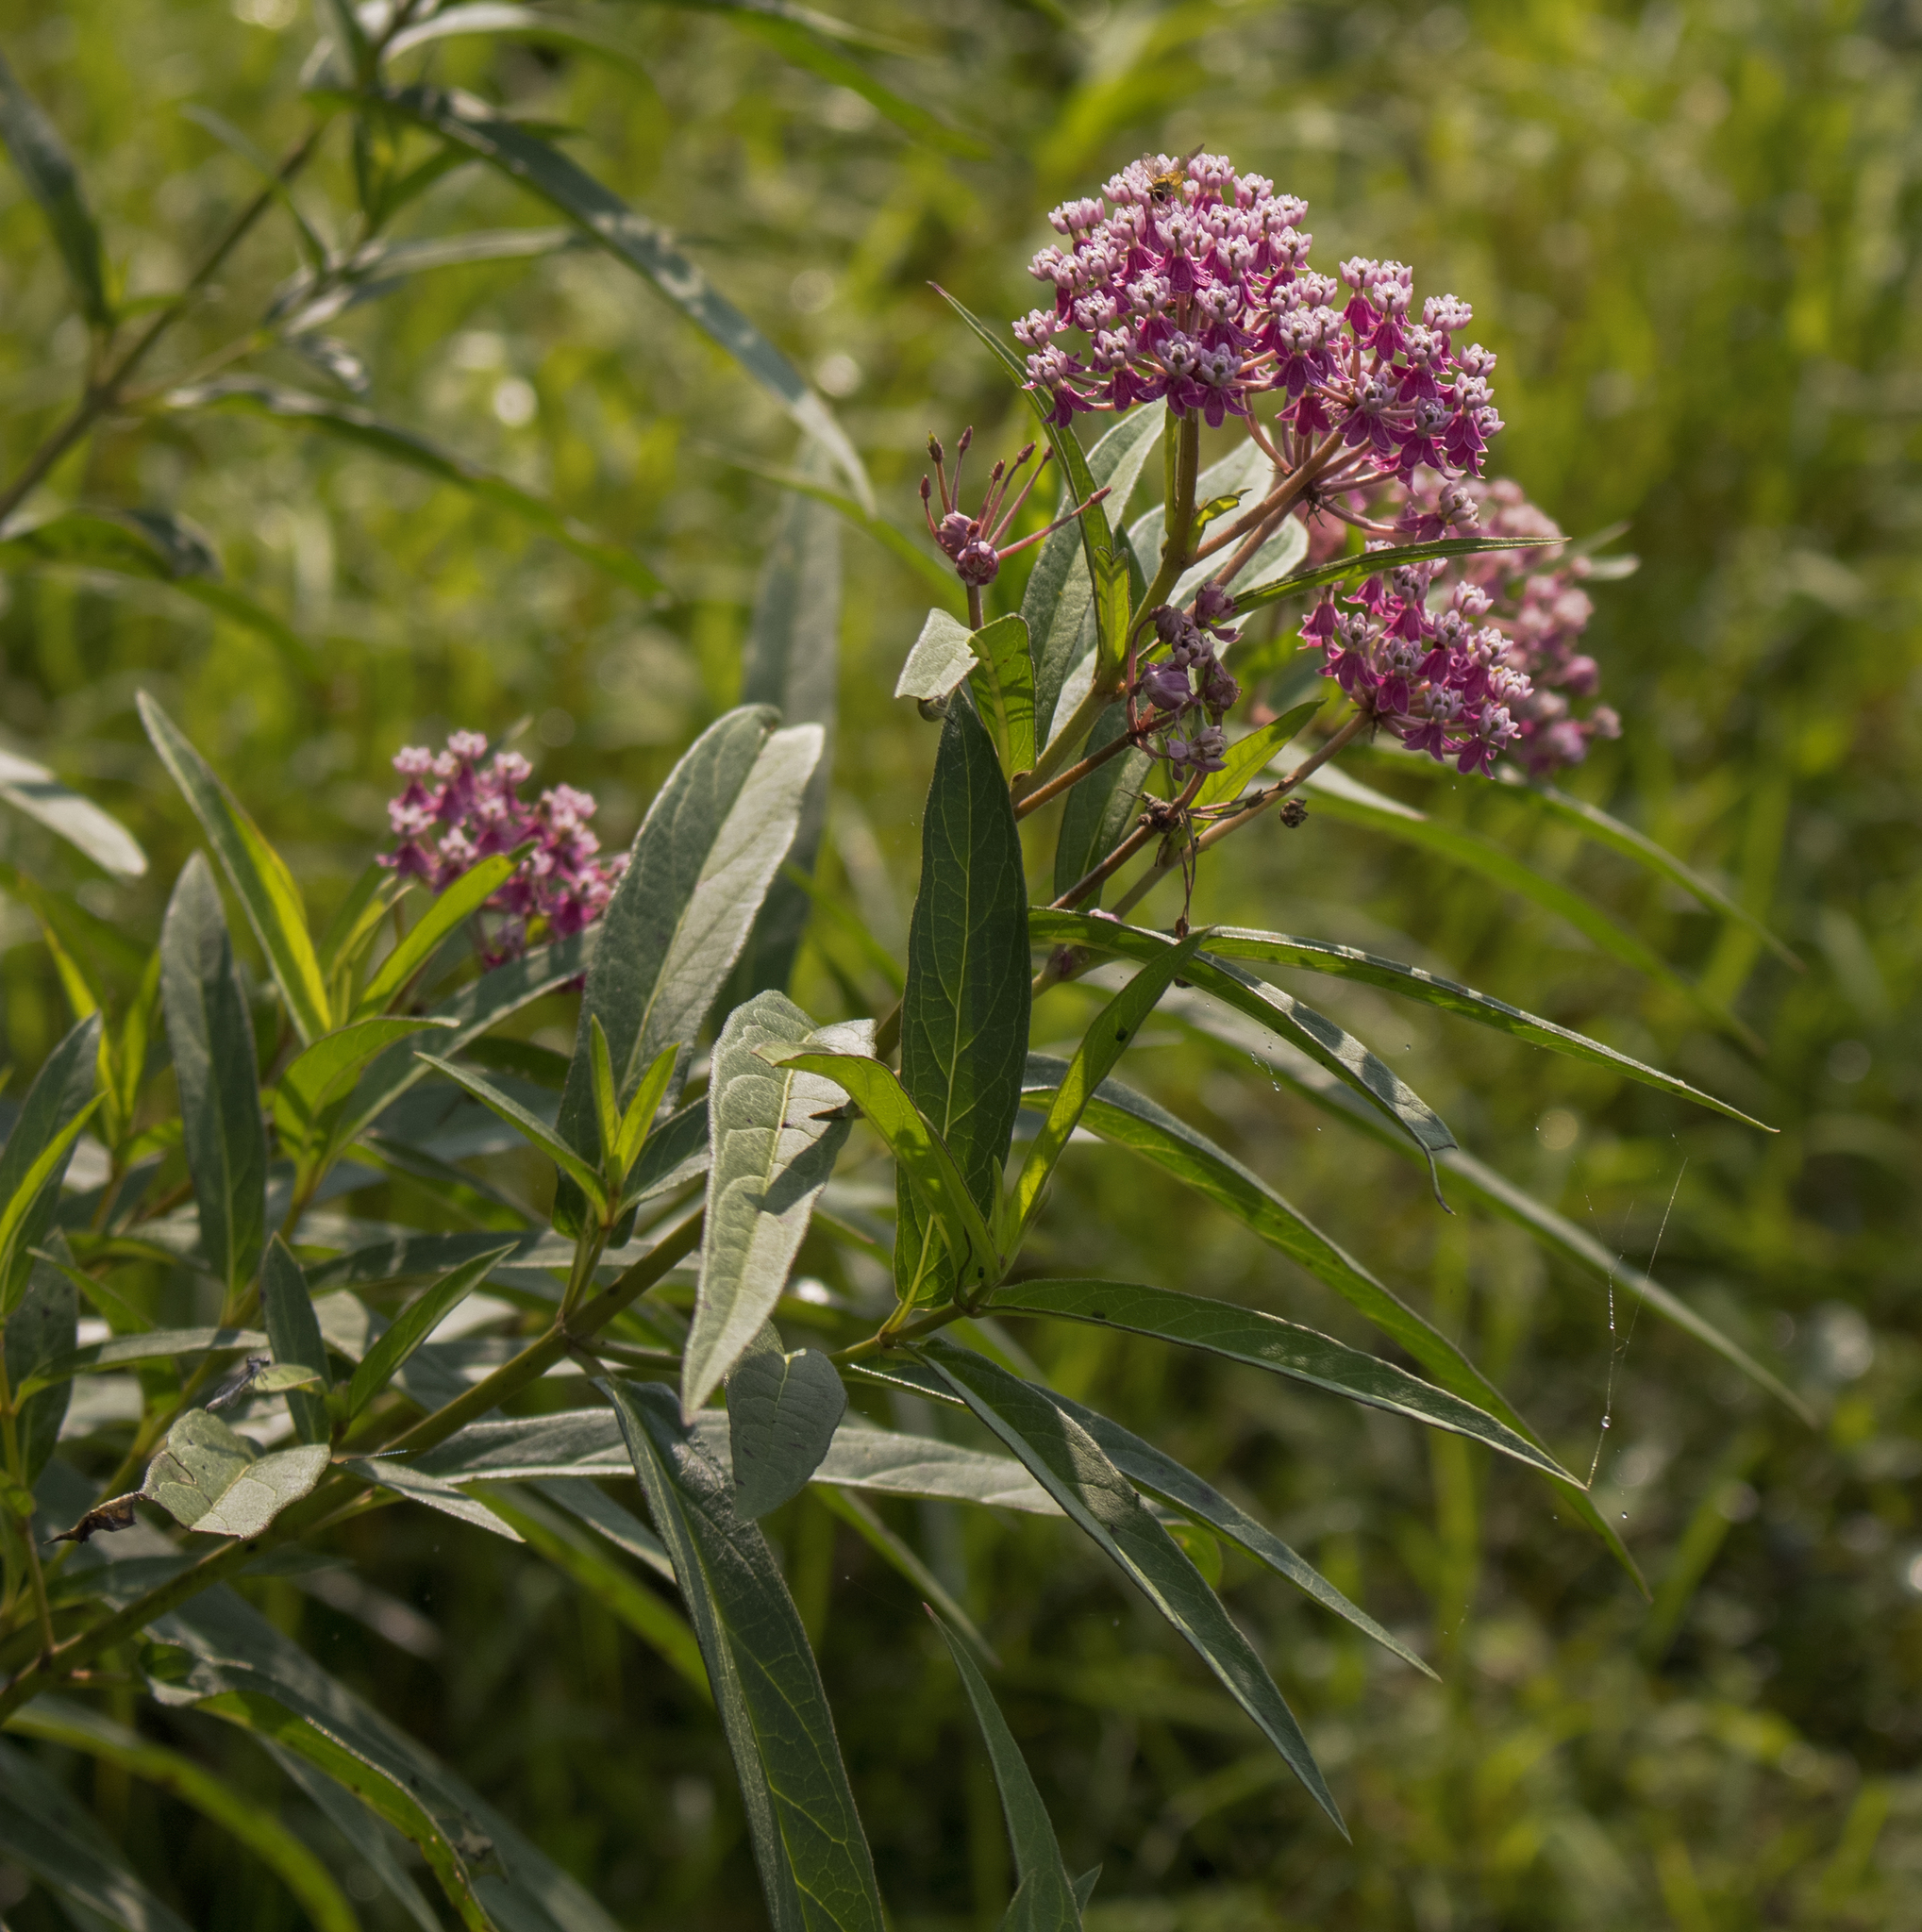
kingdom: Plantae
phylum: Tracheophyta
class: Magnoliopsida
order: Gentianales
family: Apocynaceae
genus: Asclepias
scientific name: Asclepias incarnata
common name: Swamp milkweed
